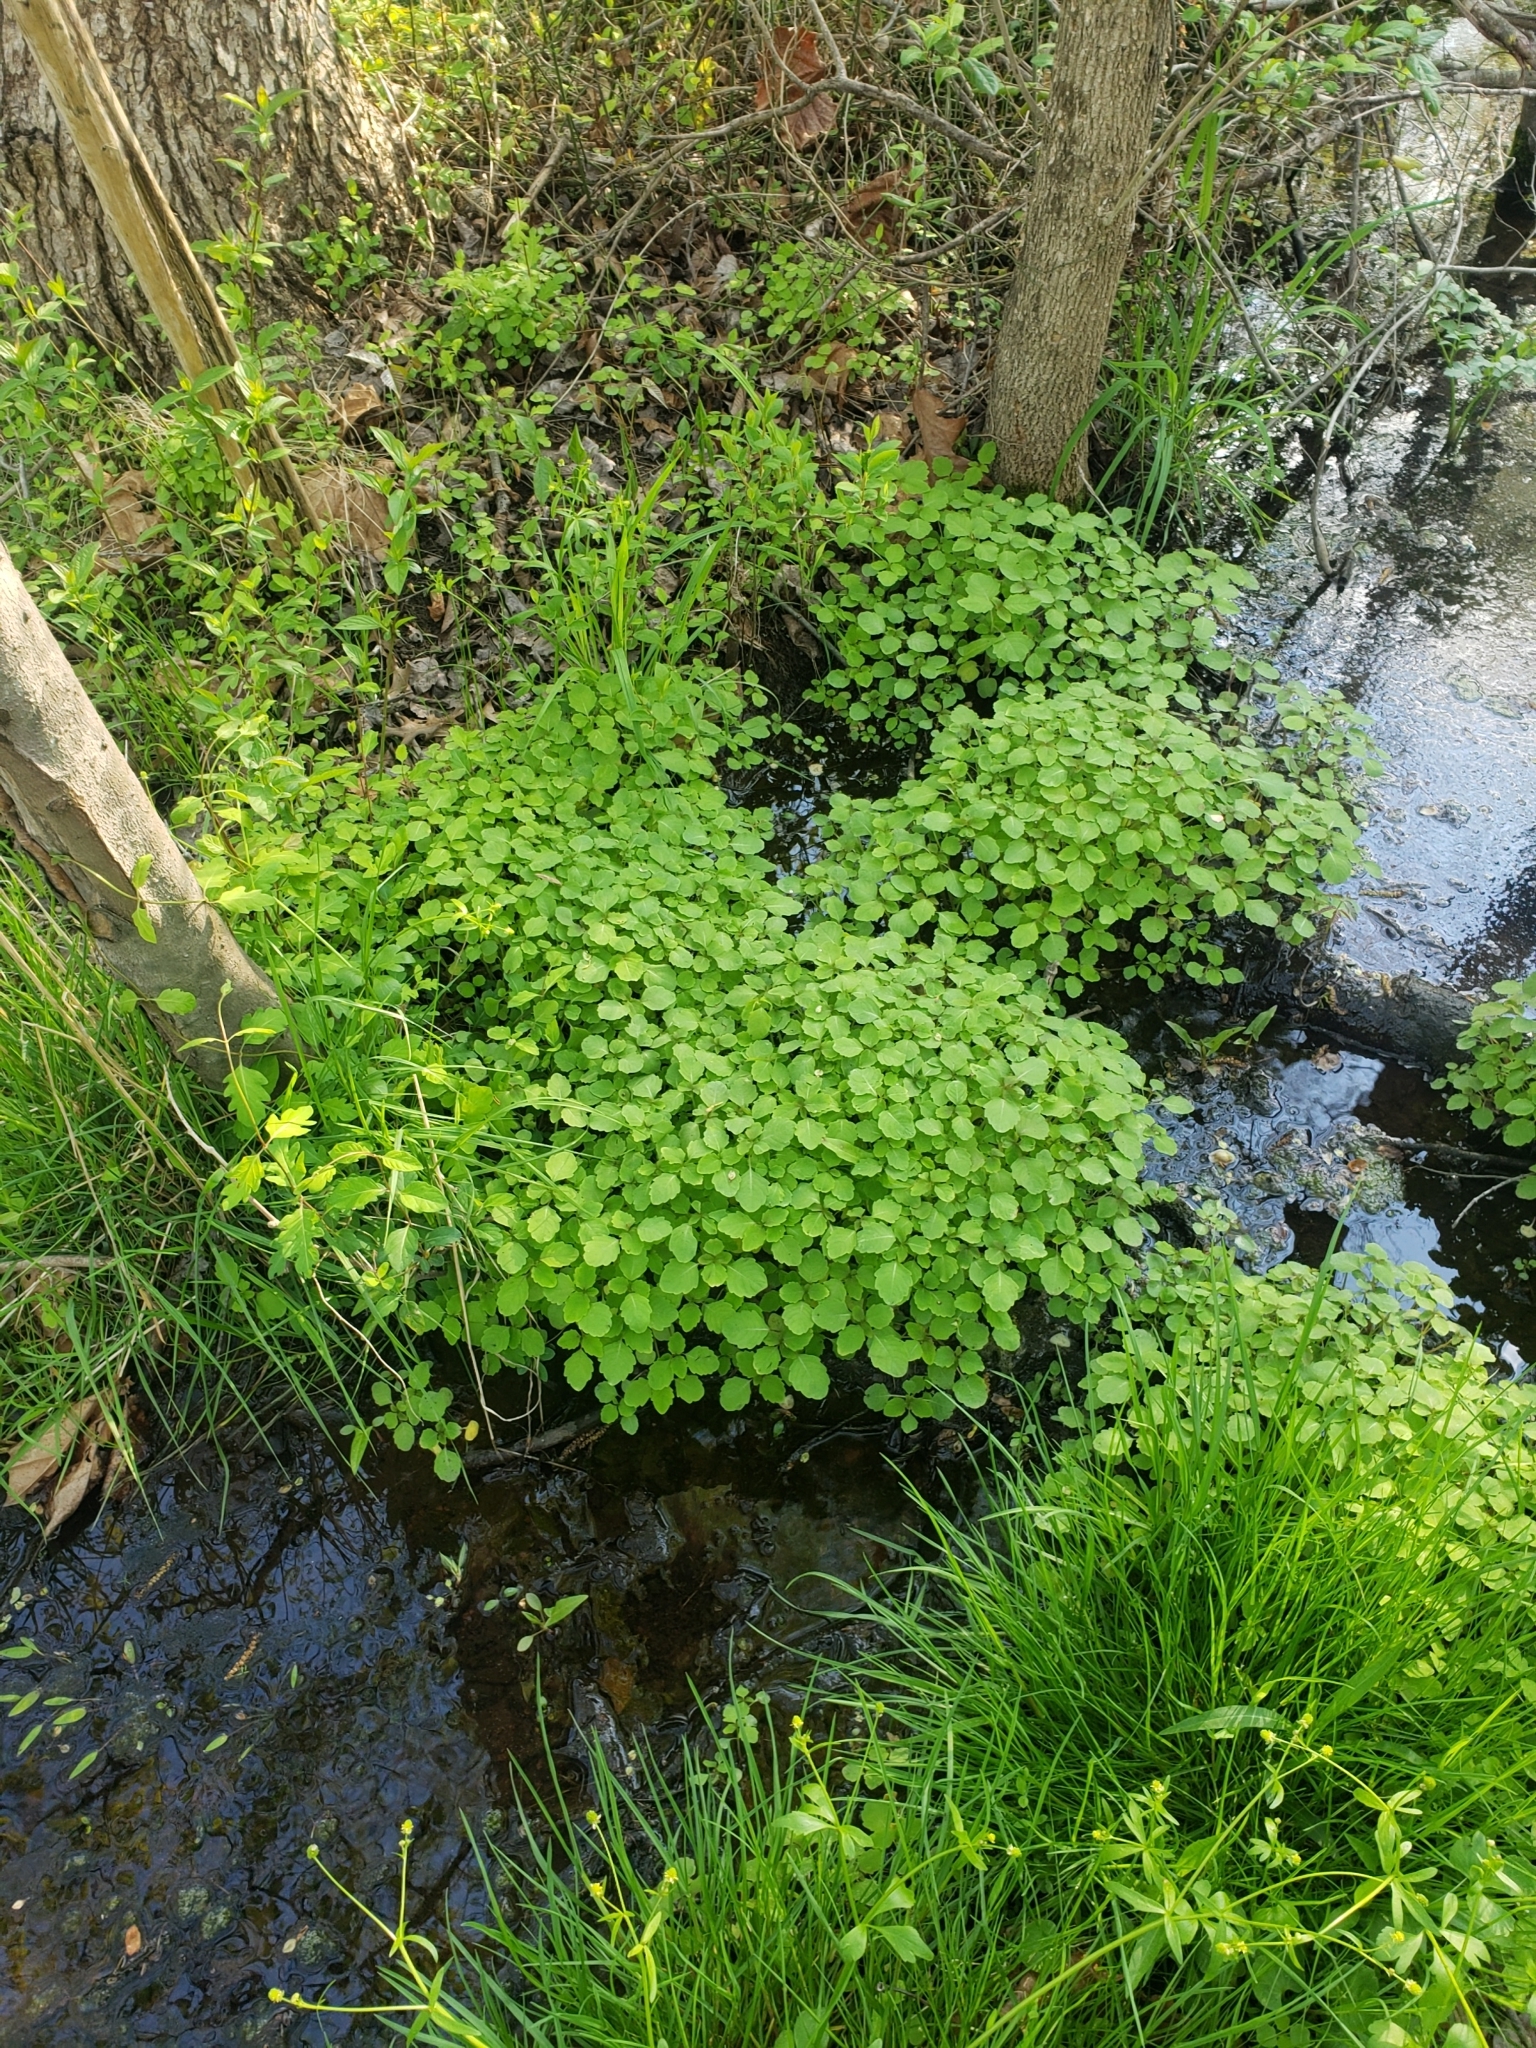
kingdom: Plantae
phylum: Tracheophyta
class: Magnoliopsida
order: Ericales
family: Balsaminaceae
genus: Impatiens
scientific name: Impatiens capensis
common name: Orange balsam
